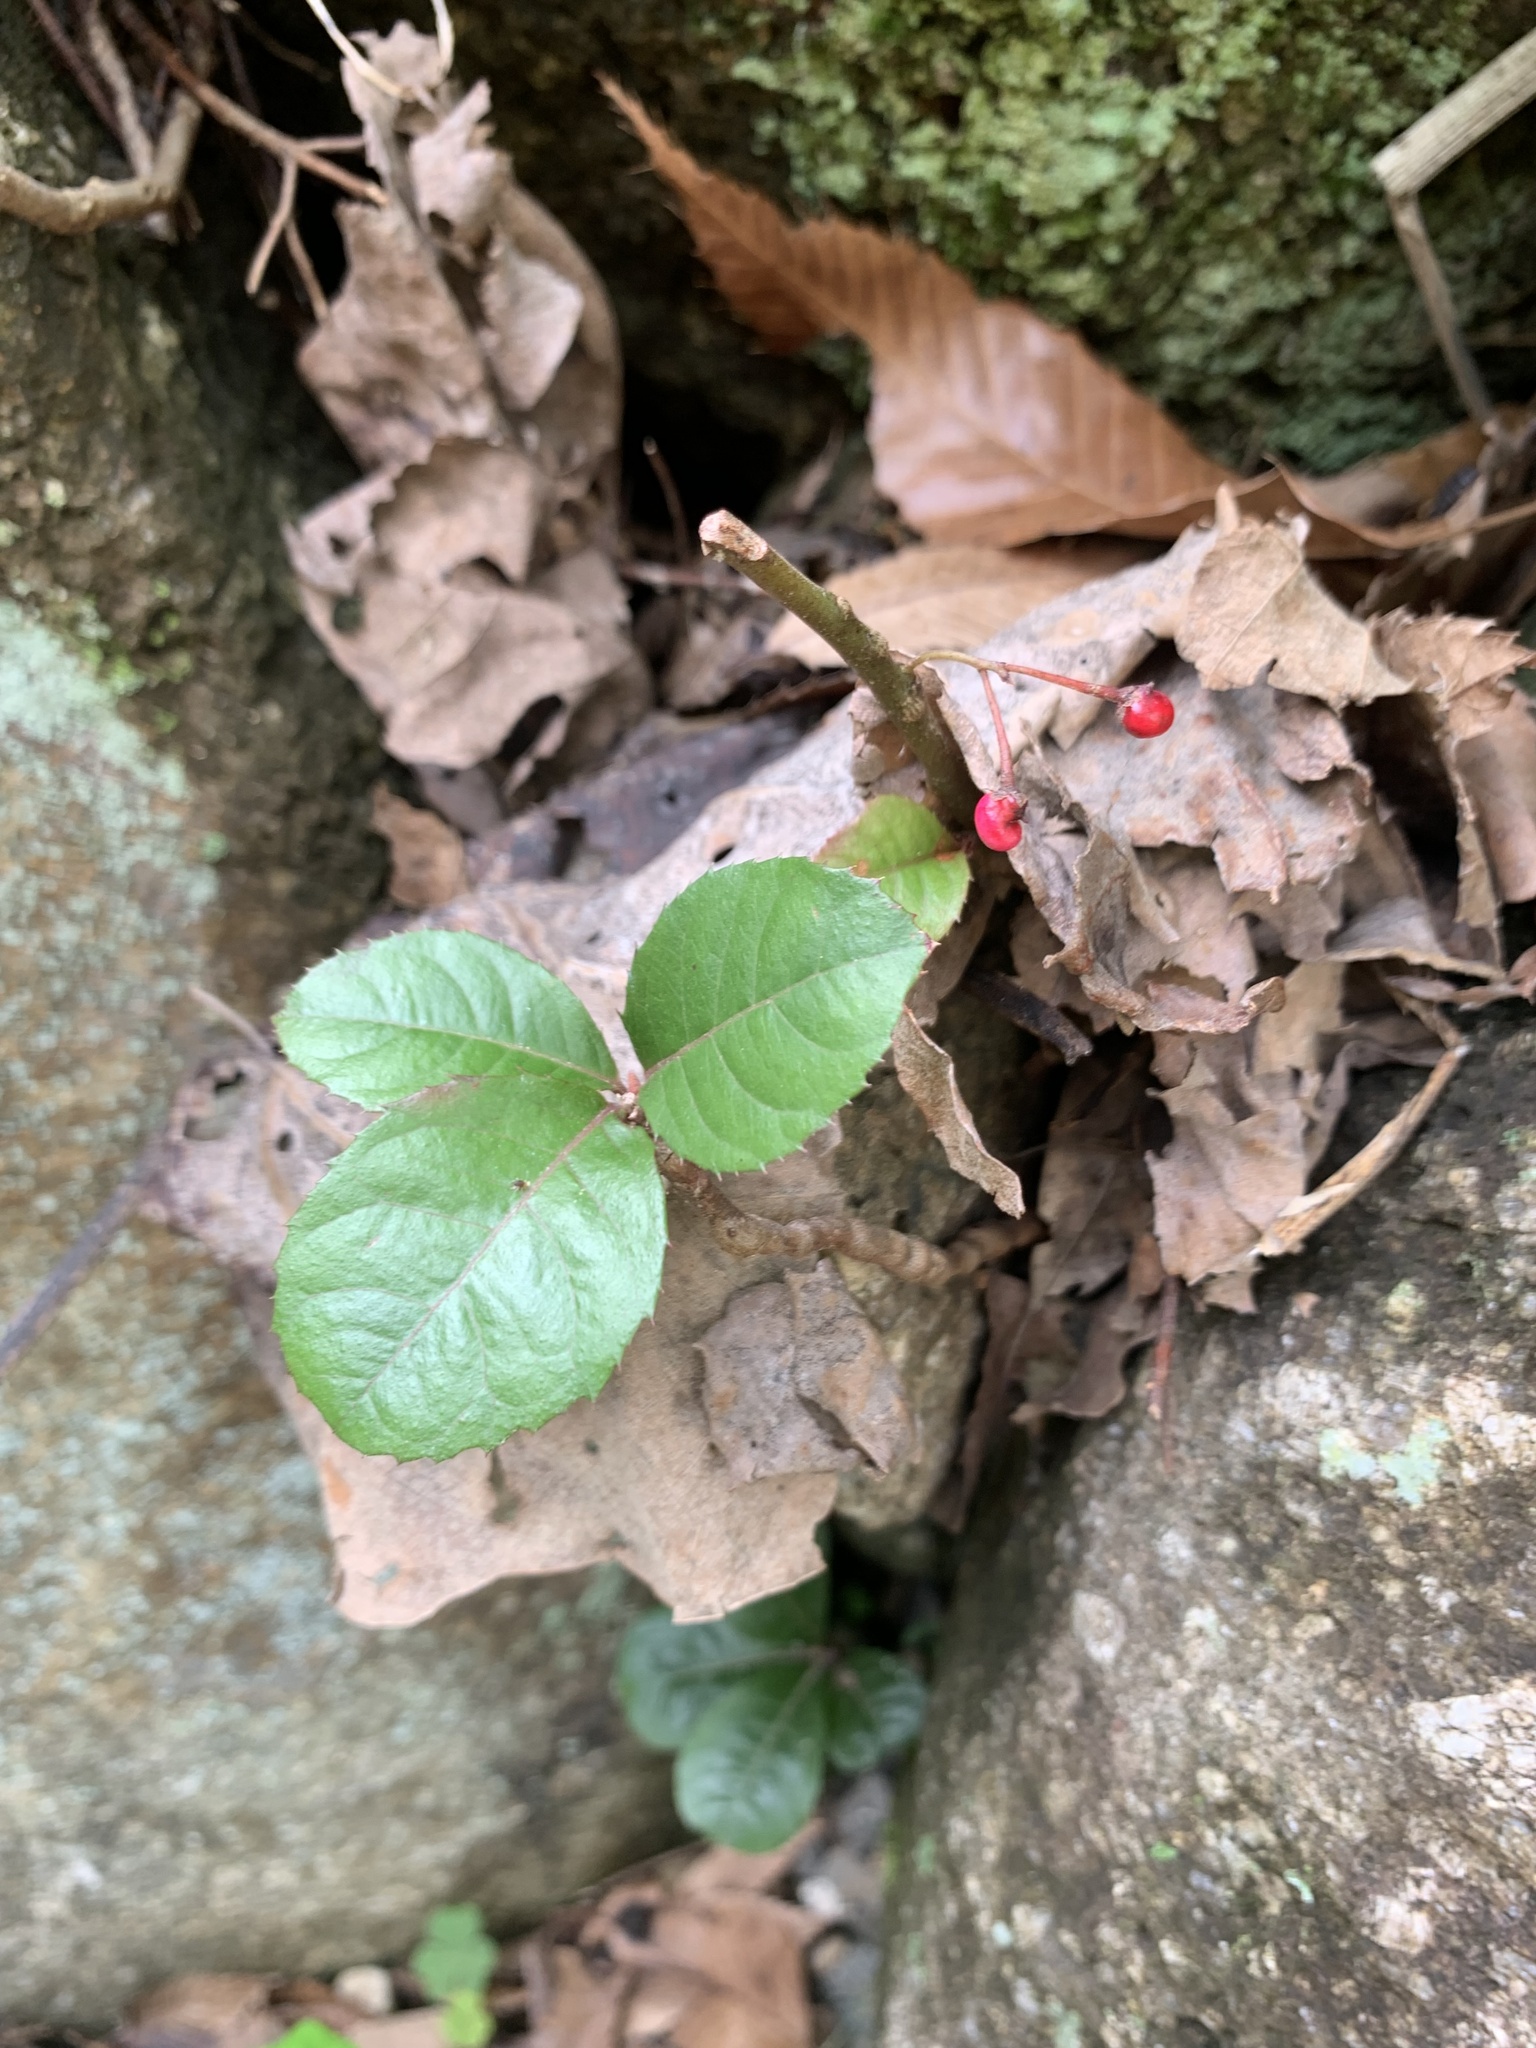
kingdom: Plantae
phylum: Tracheophyta
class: Magnoliopsida
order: Ericales
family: Primulaceae
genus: Ardisia
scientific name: Ardisia japonica
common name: Marlberry
